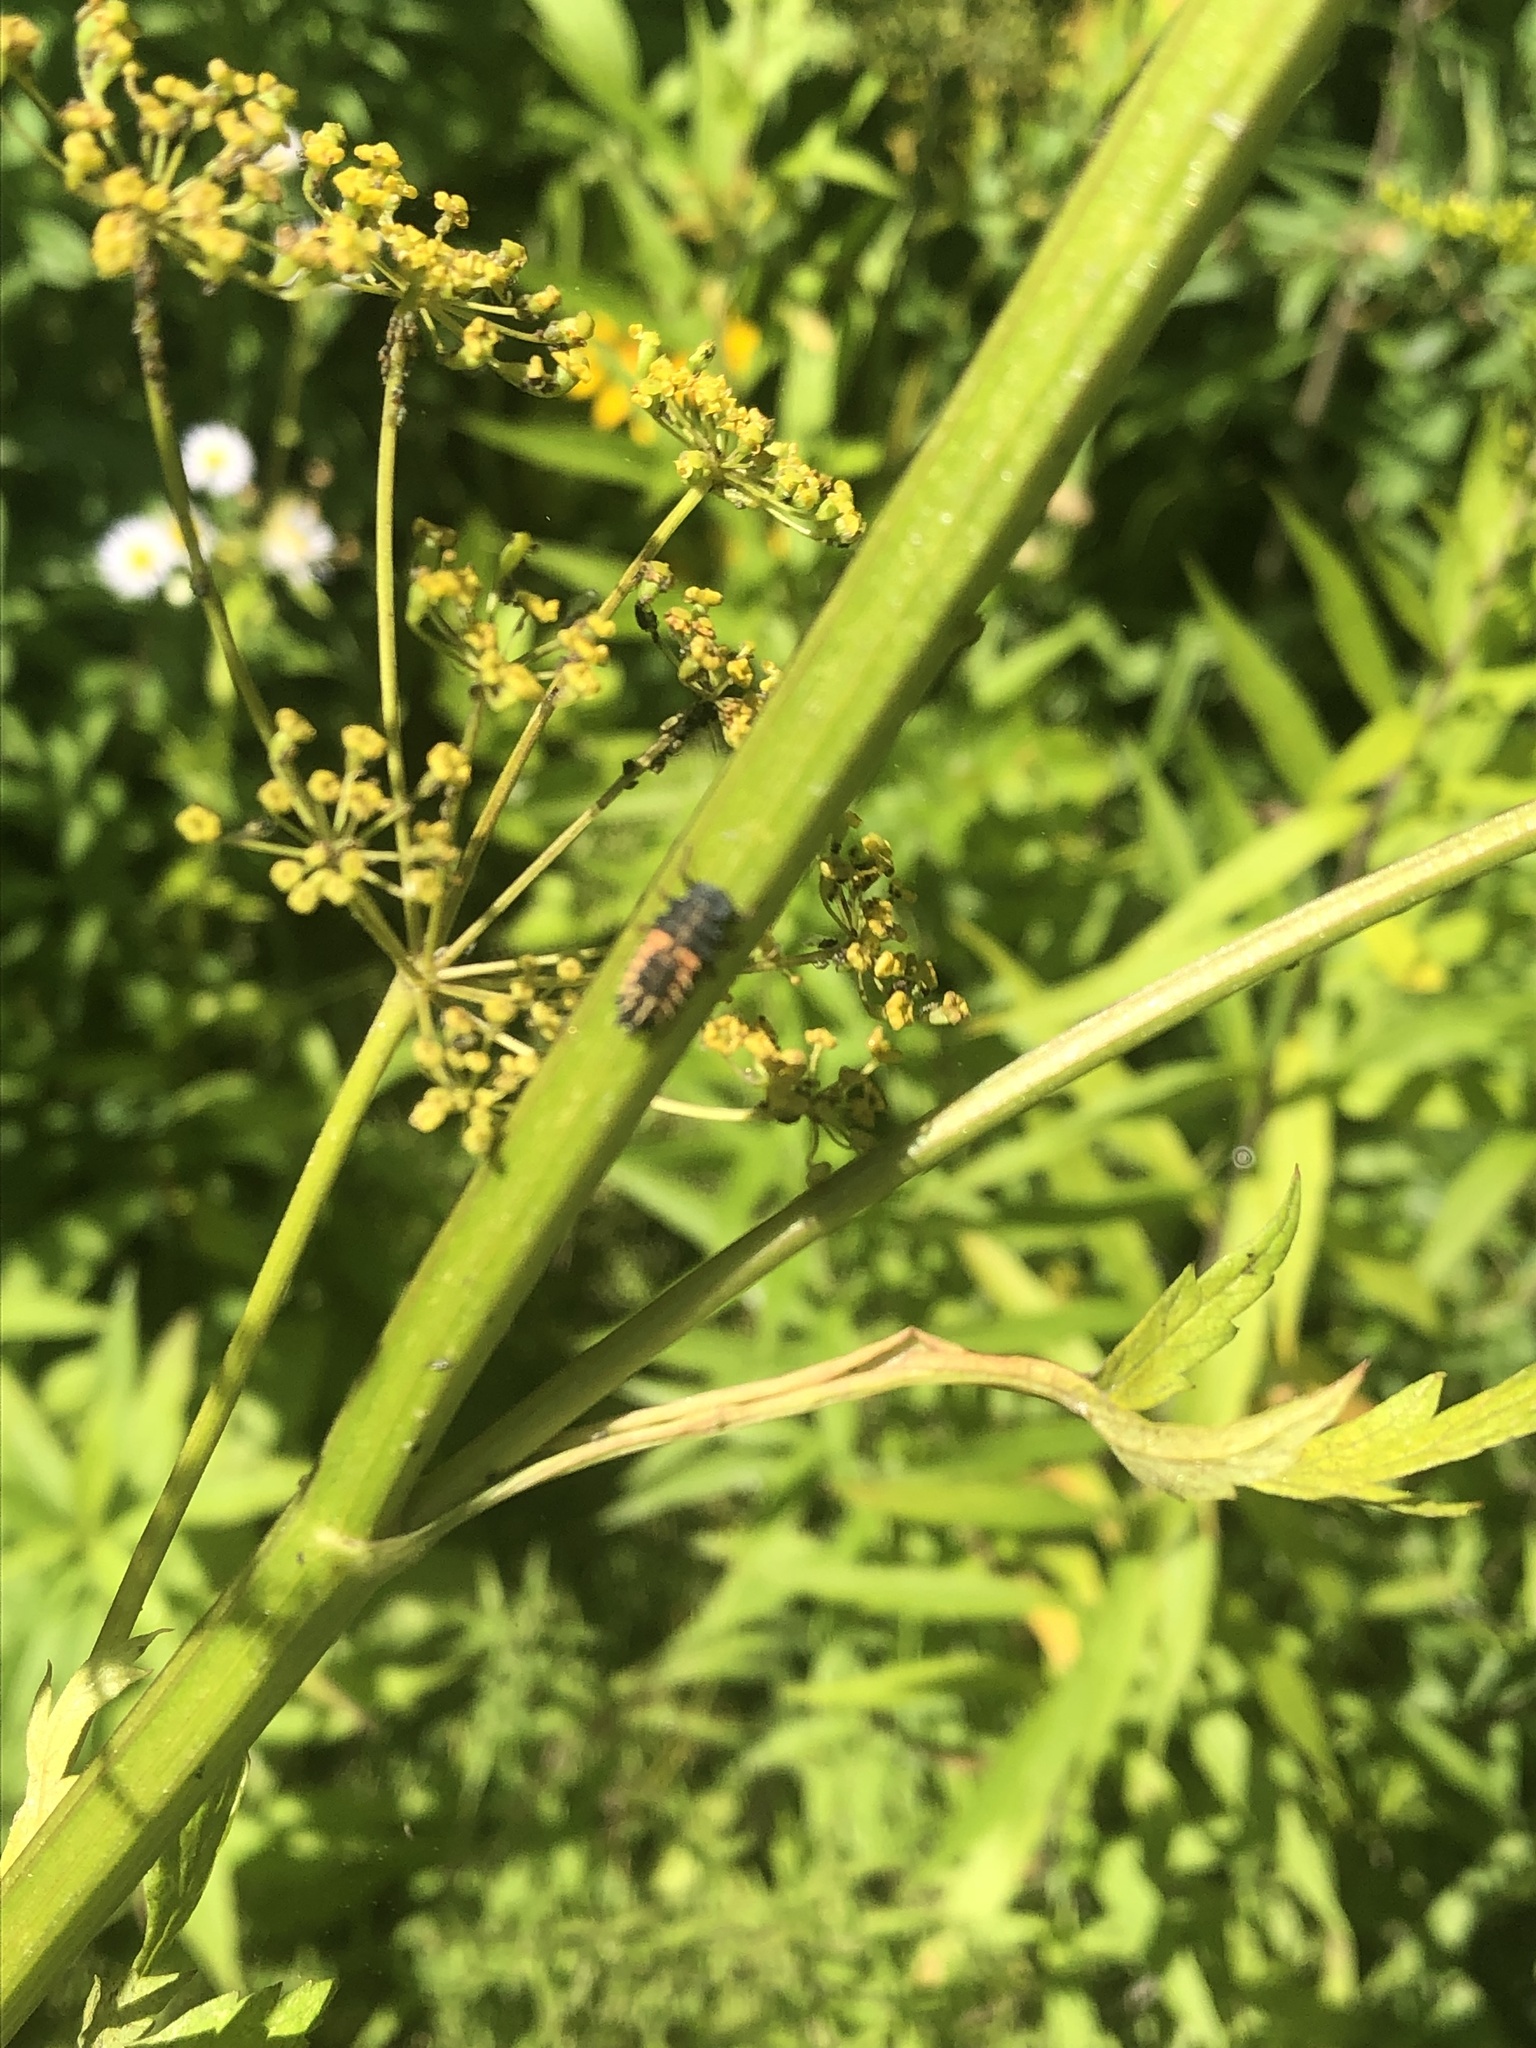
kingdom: Animalia
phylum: Arthropoda
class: Insecta
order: Coleoptera
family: Coccinellidae
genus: Harmonia
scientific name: Harmonia axyridis
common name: Harlequin ladybird
